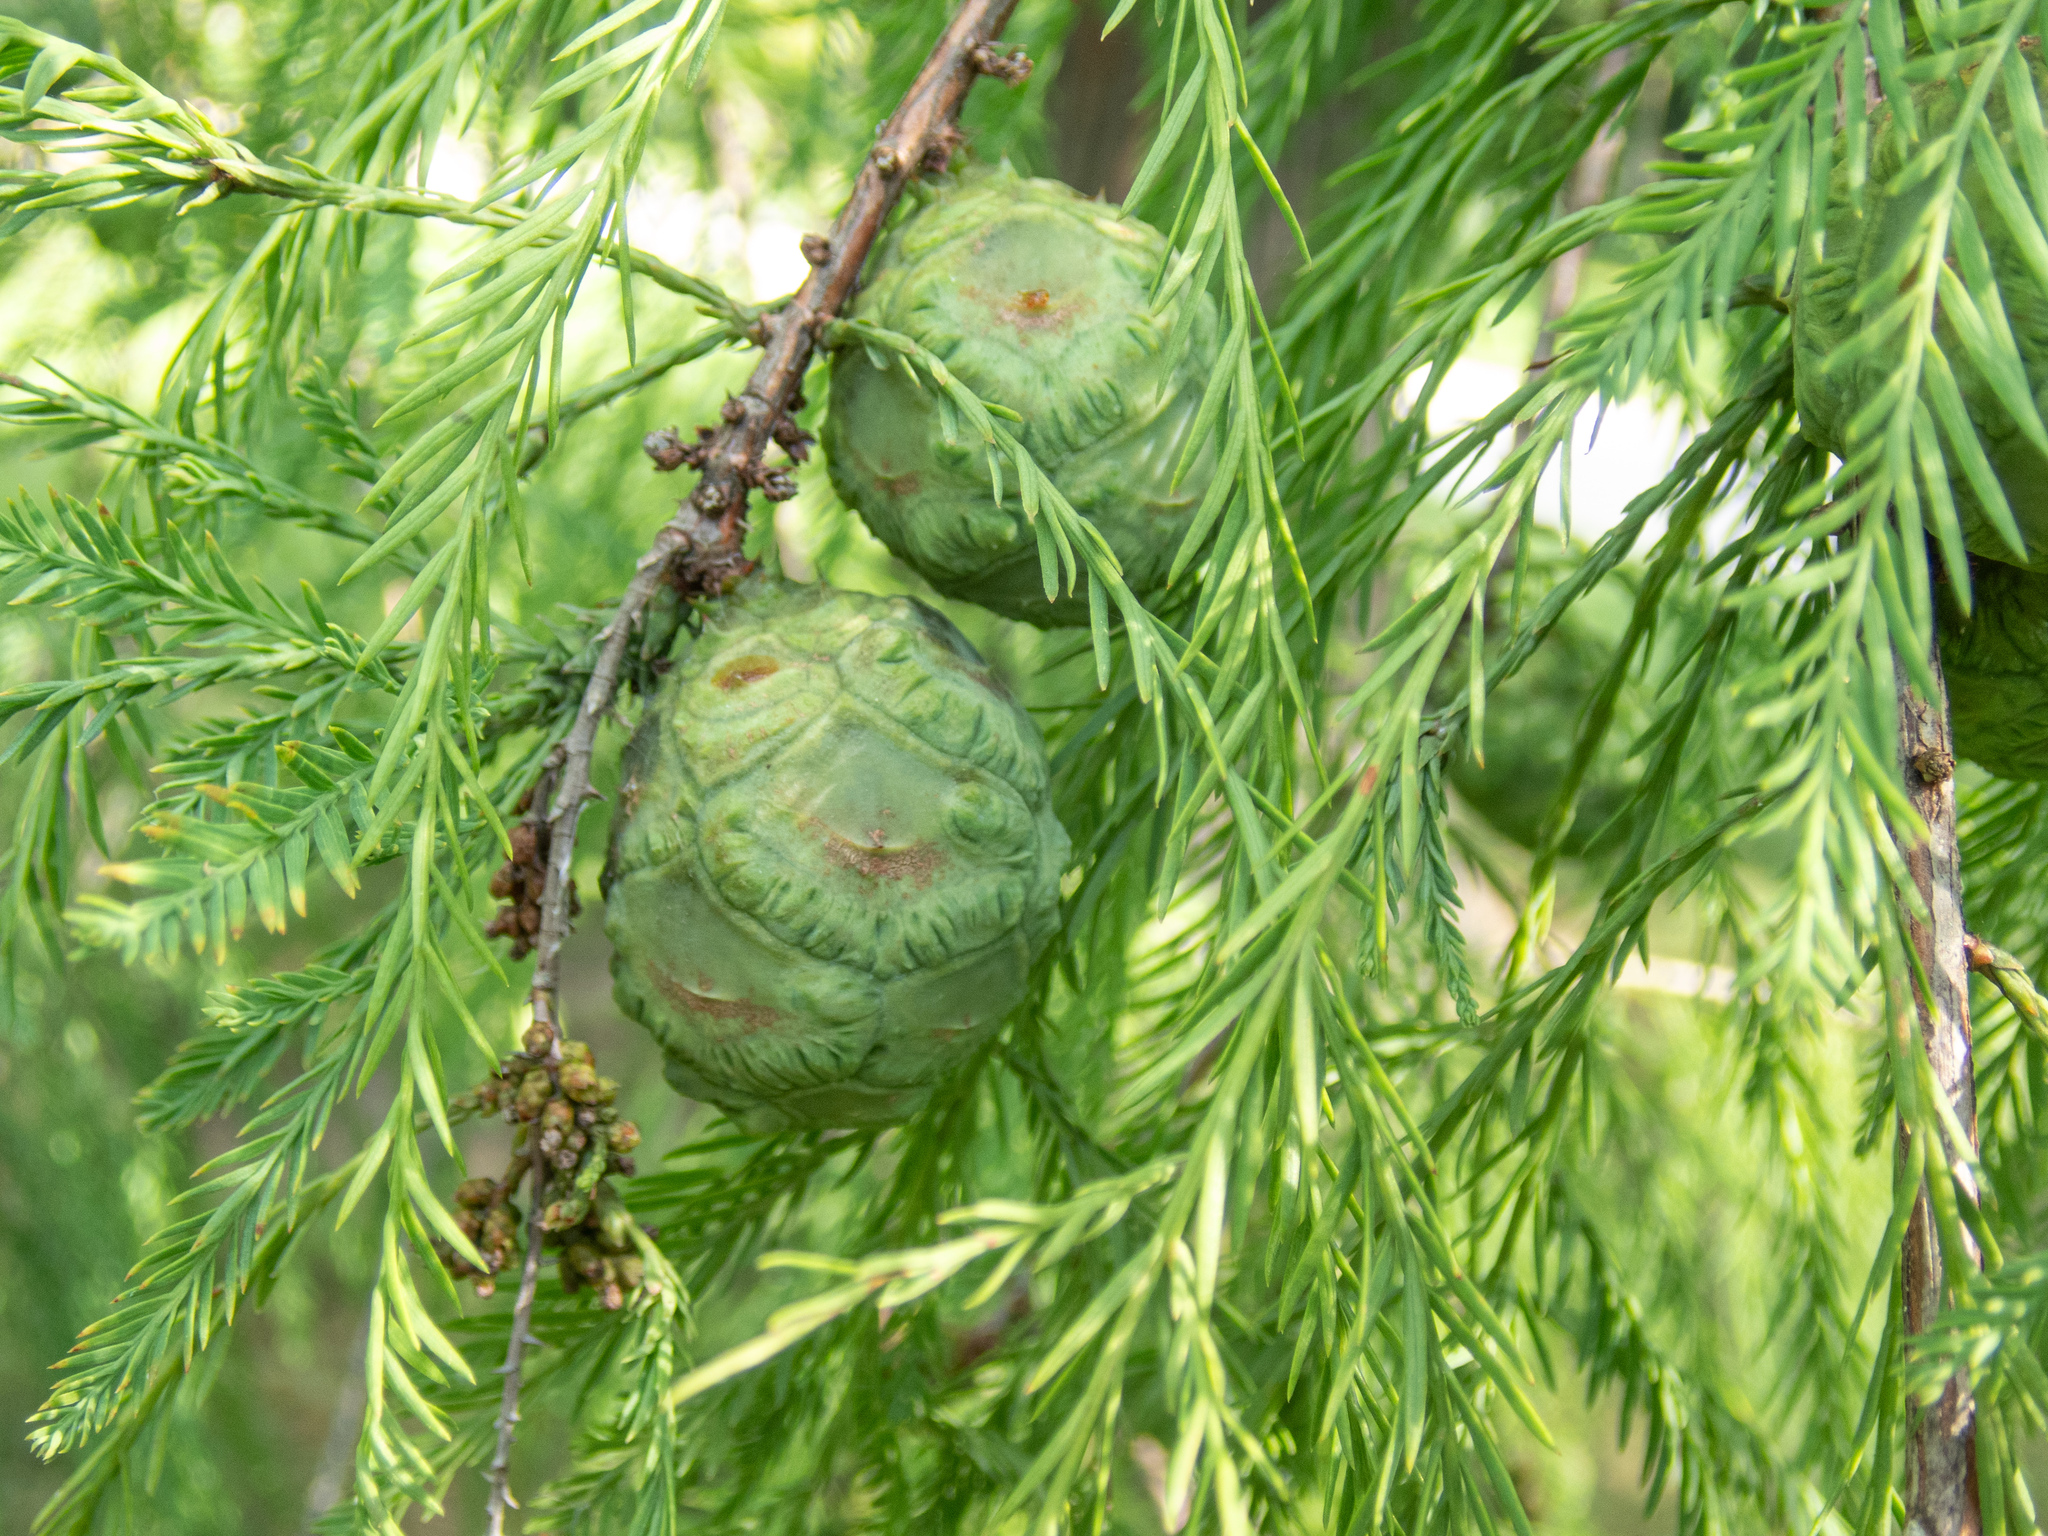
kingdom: Plantae
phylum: Tracheophyta
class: Pinopsida
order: Pinales
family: Cupressaceae
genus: Taxodium
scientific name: Taxodium distichum
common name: Bald cypress
